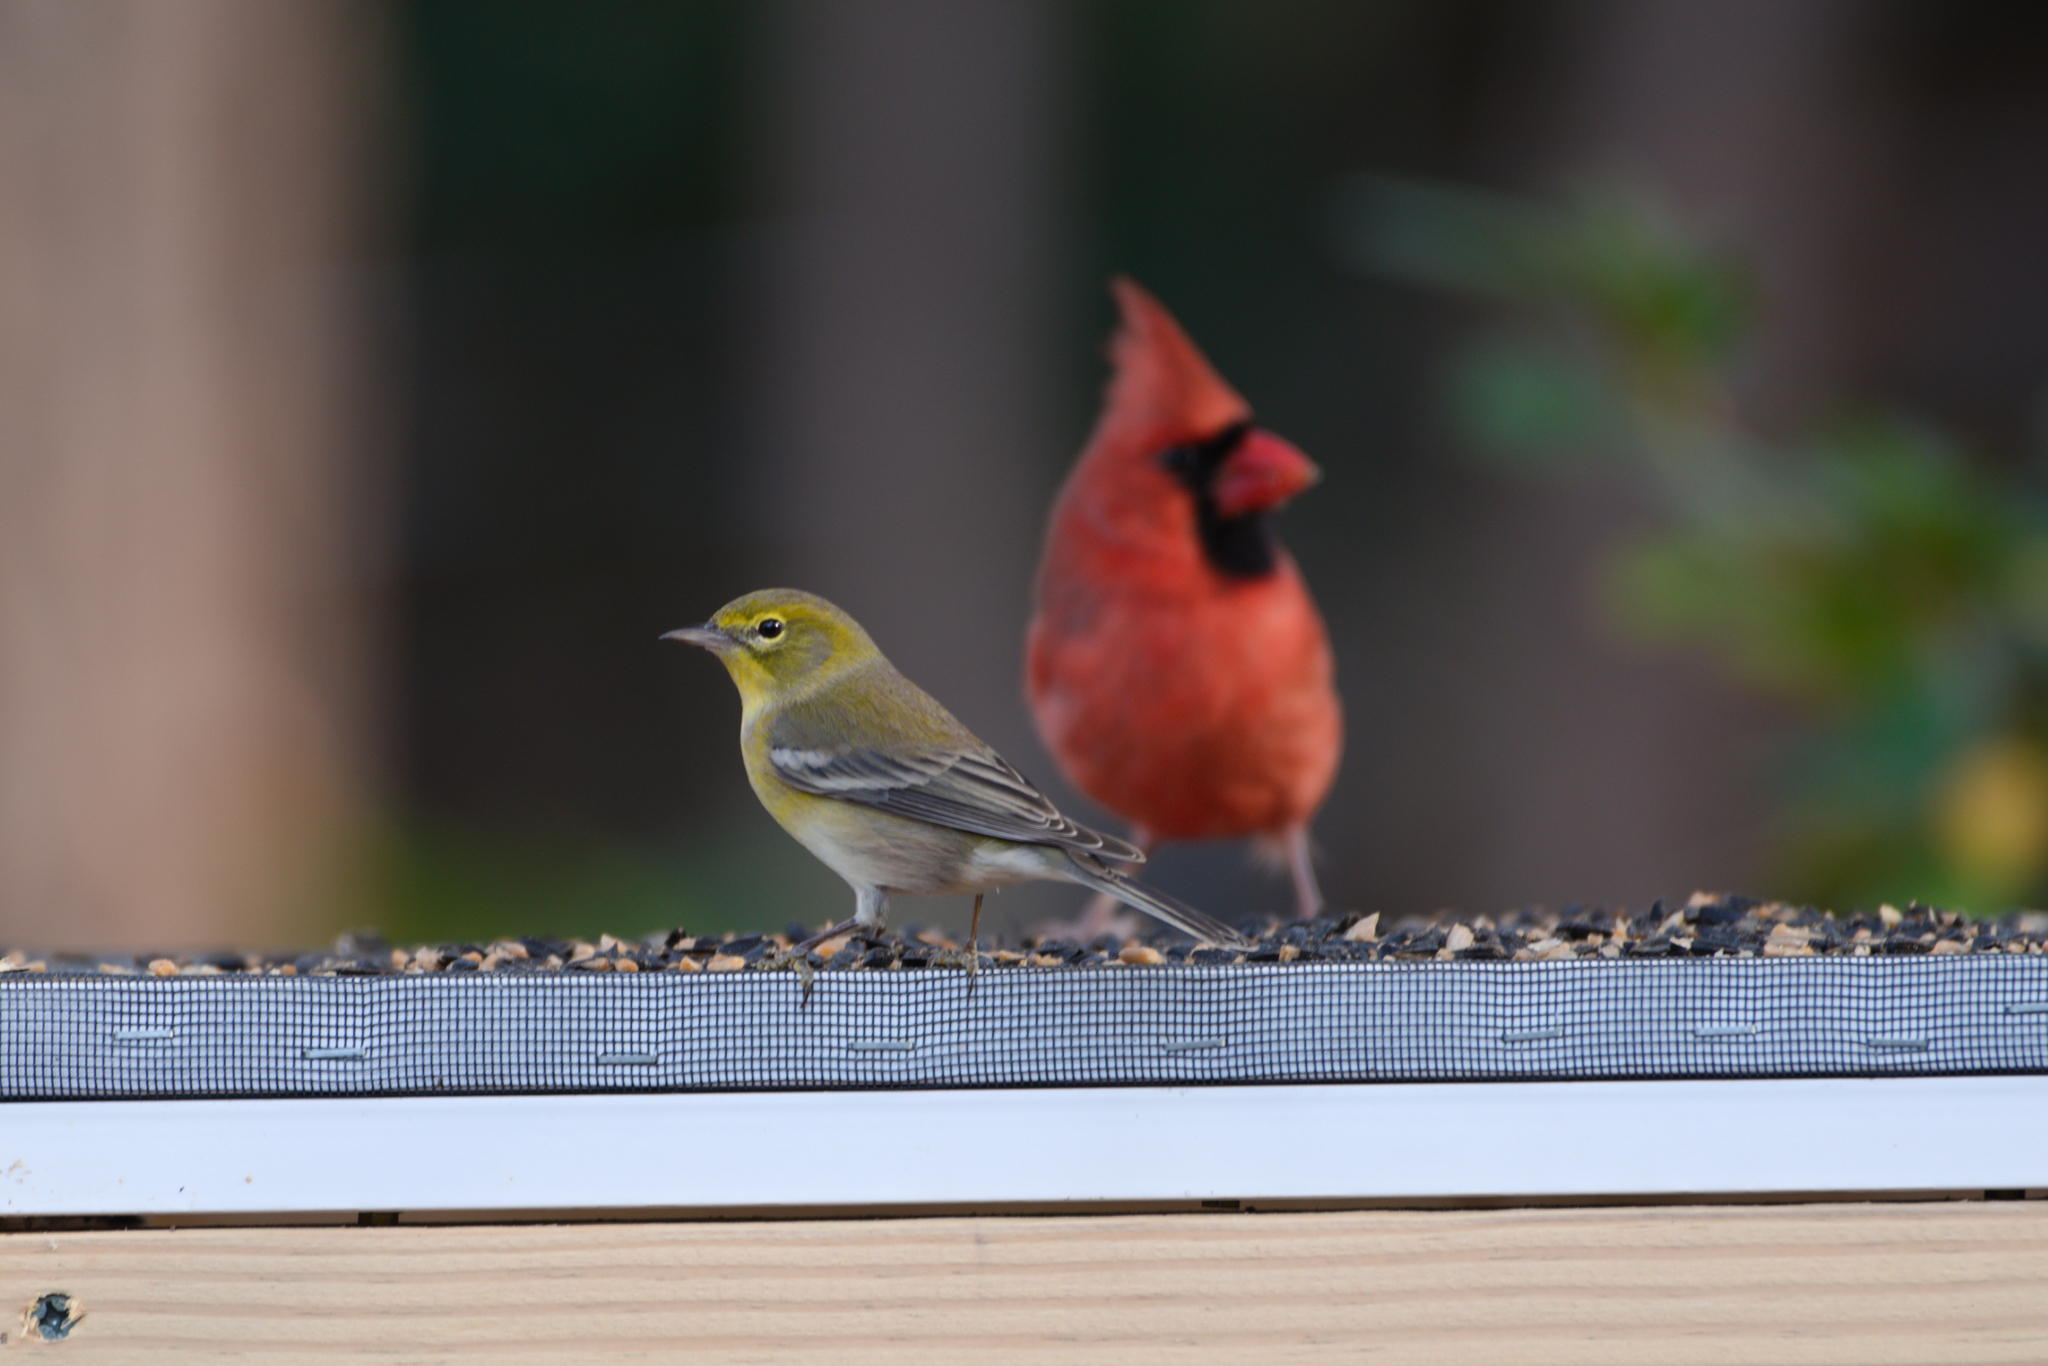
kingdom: Animalia
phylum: Chordata
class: Aves
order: Passeriformes
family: Parulidae
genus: Setophaga
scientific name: Setophaga pinus
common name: Pine warbler
